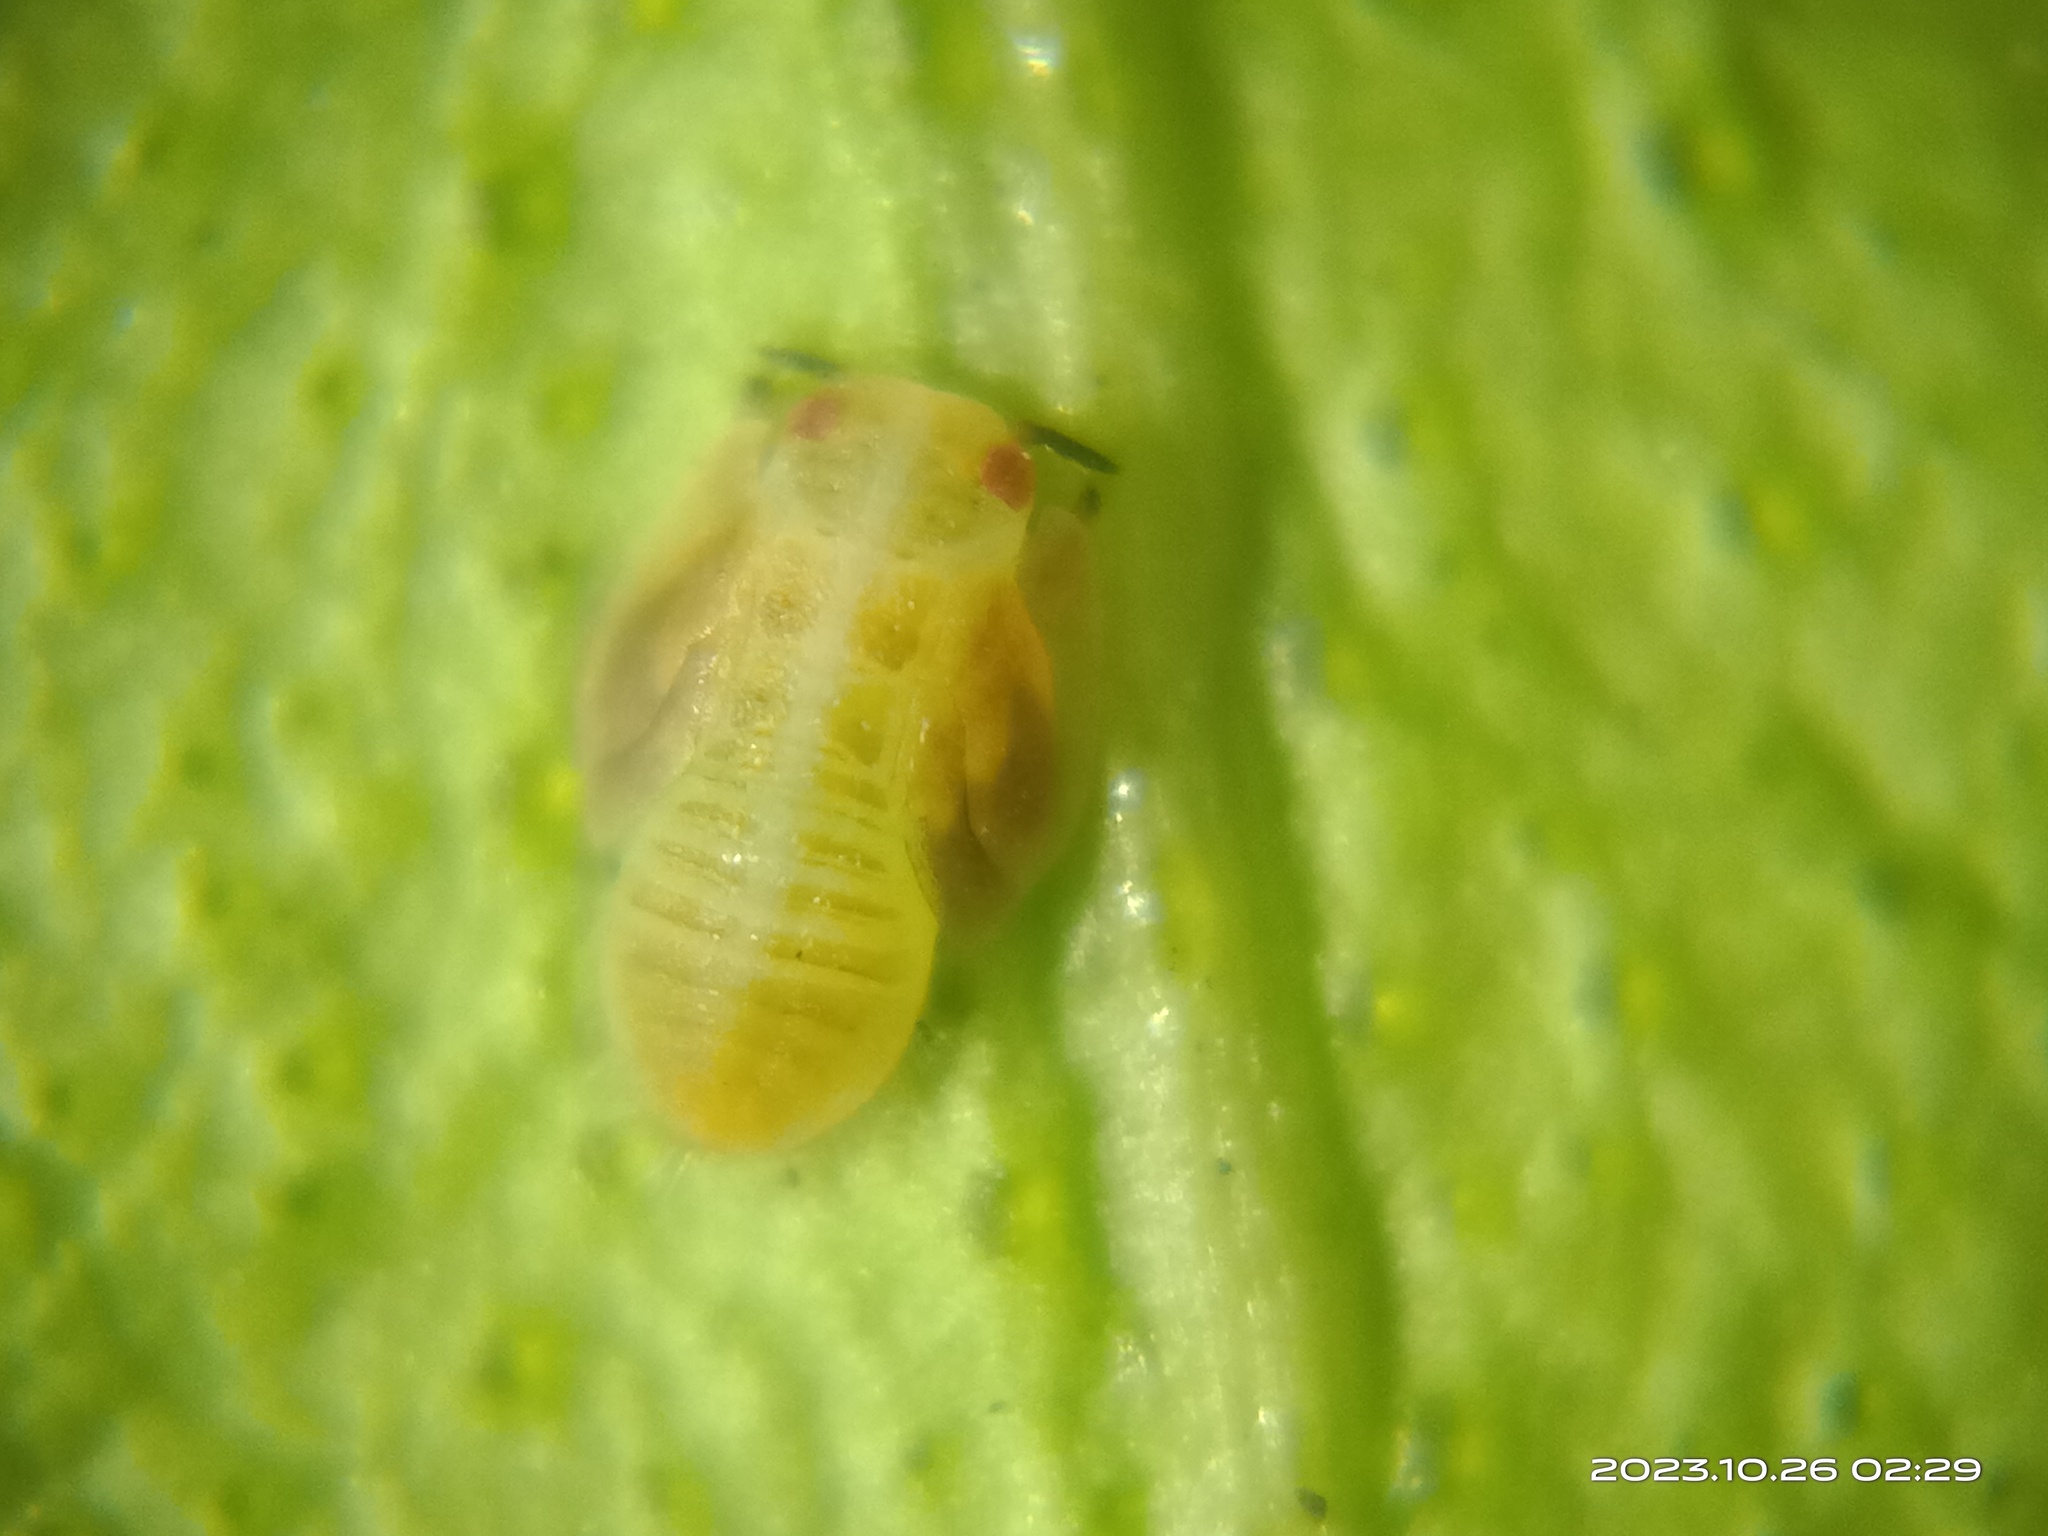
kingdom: Animalia
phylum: Arthropoda
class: Insecta
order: Hemiptera
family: Liviidae
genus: Diaphorina
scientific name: Diaphorina citri
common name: Asian citrus psyllid
